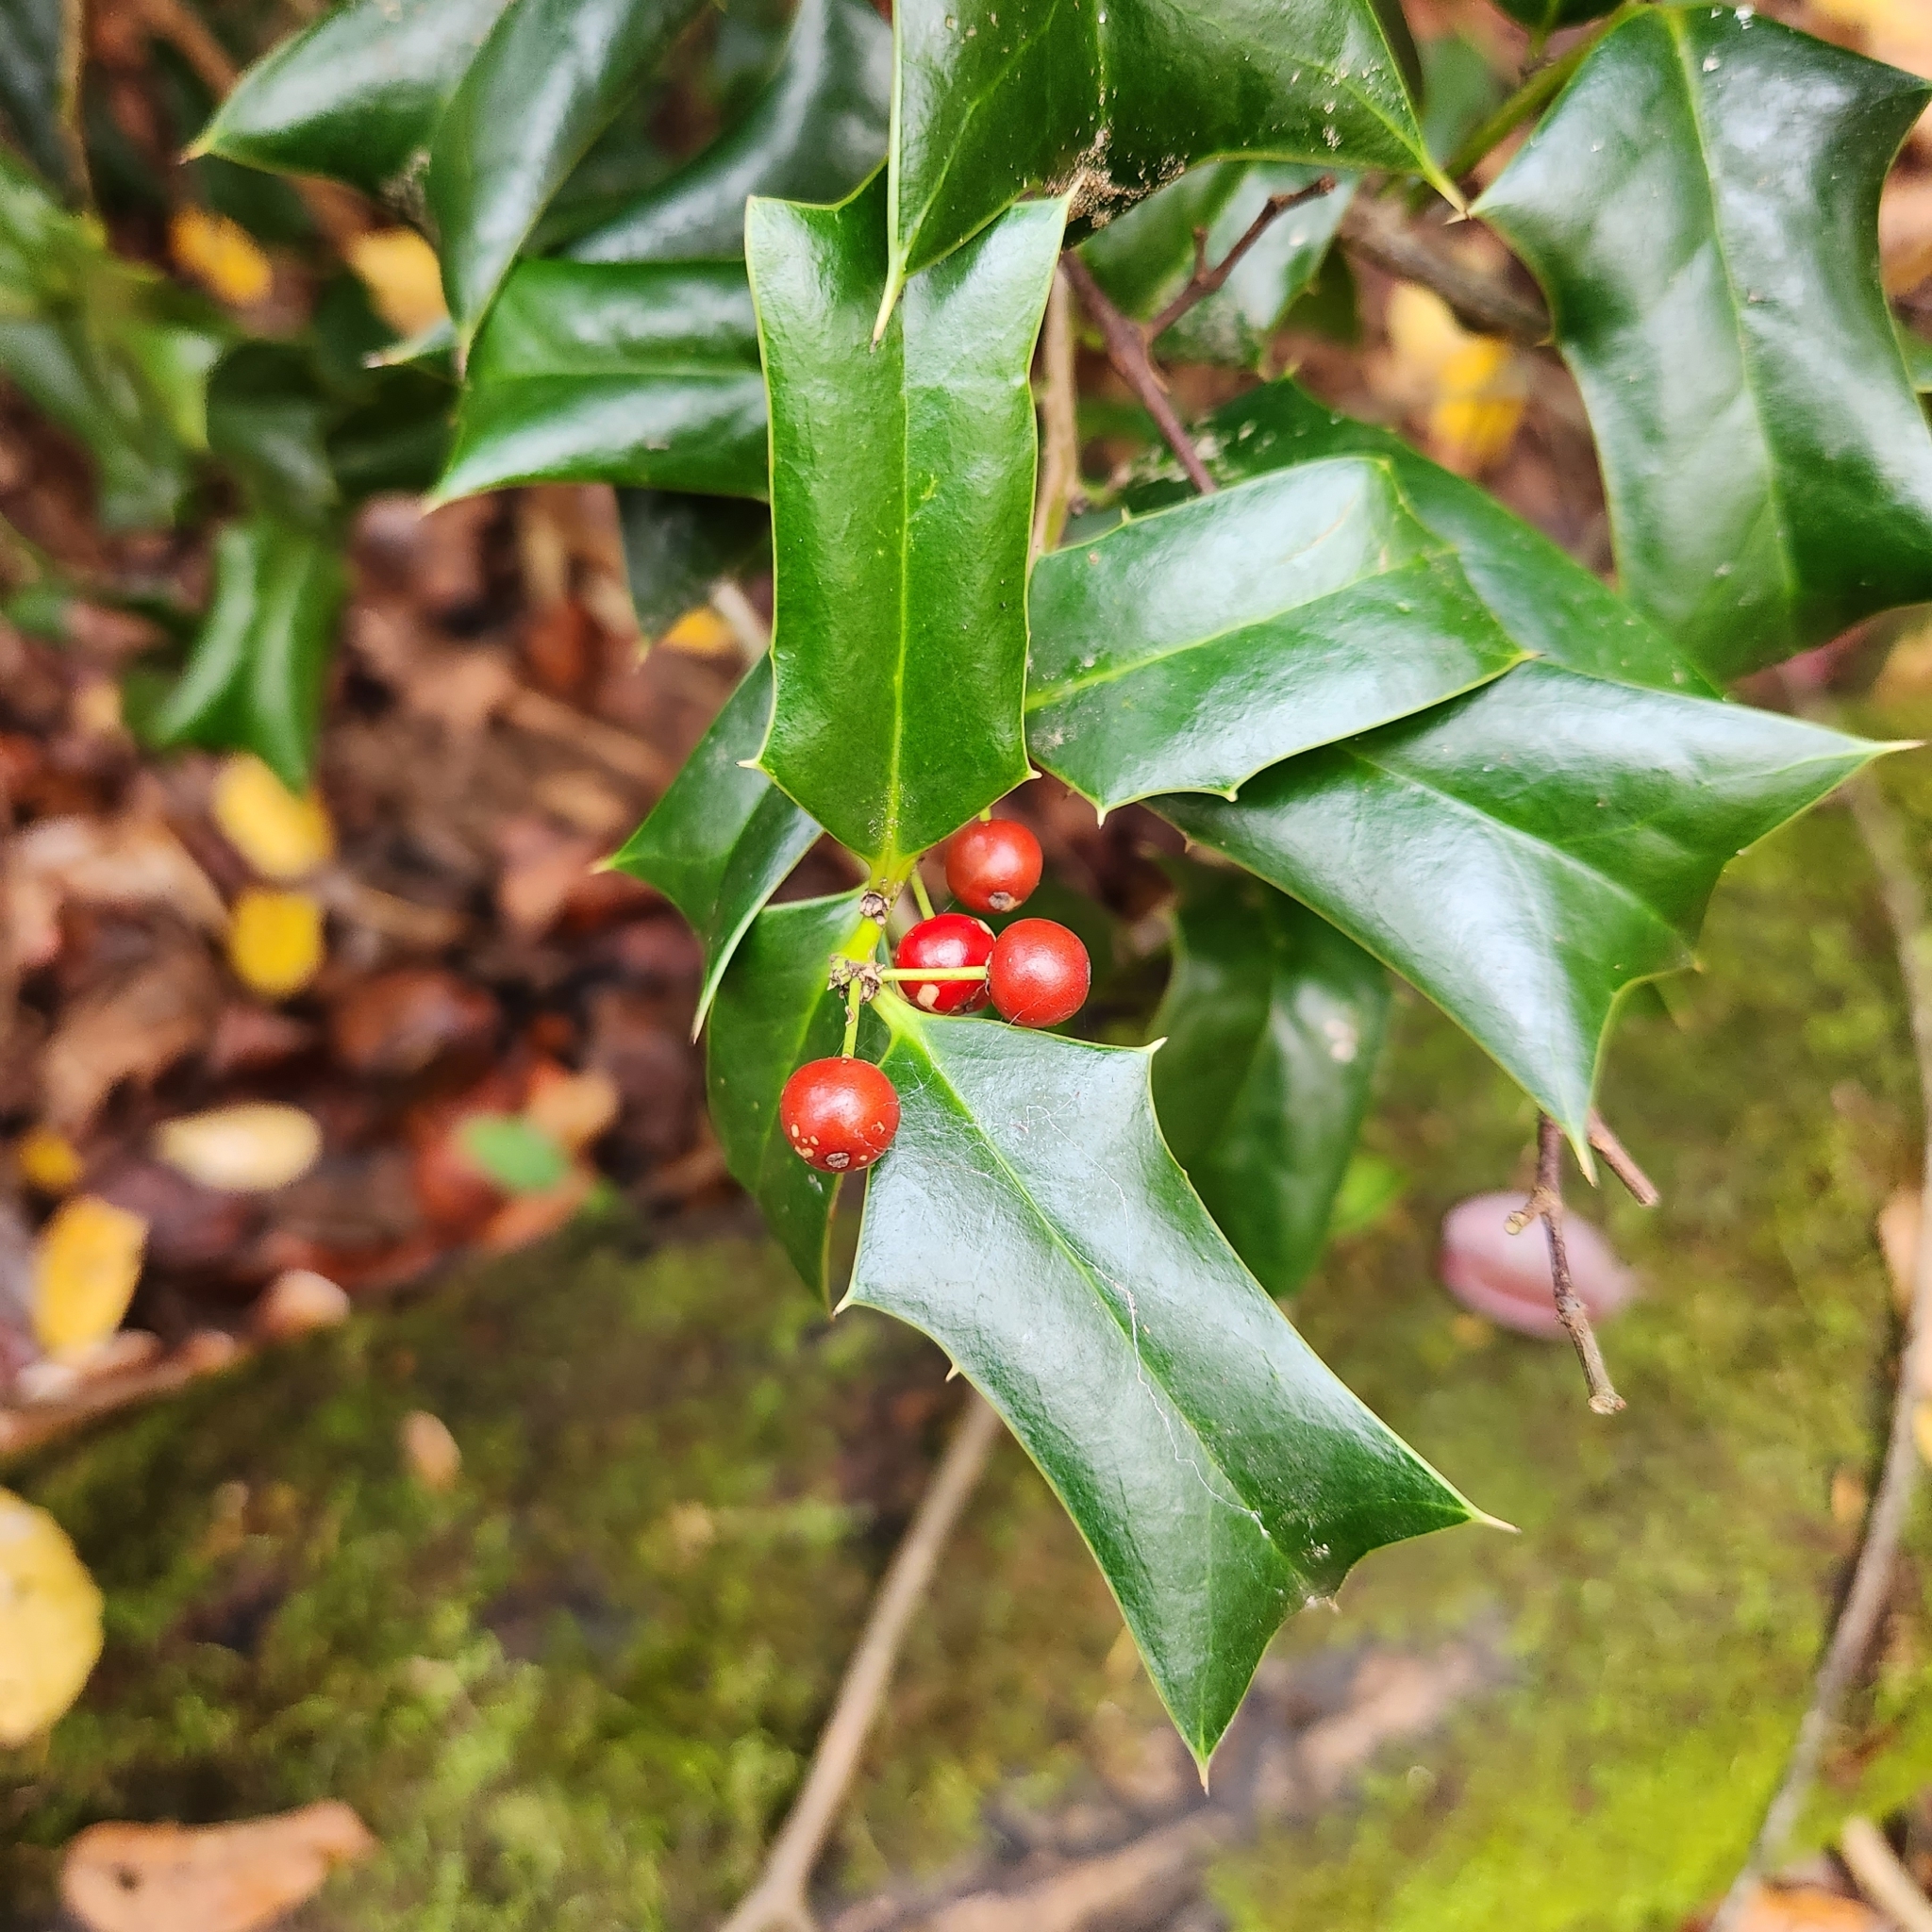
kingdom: Plantae
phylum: Tracheophyta
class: Magnoliopsida
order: Aquifoliales
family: Aquifoliaceae
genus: Ilex
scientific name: Ilex cornuta
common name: Chinese holly
